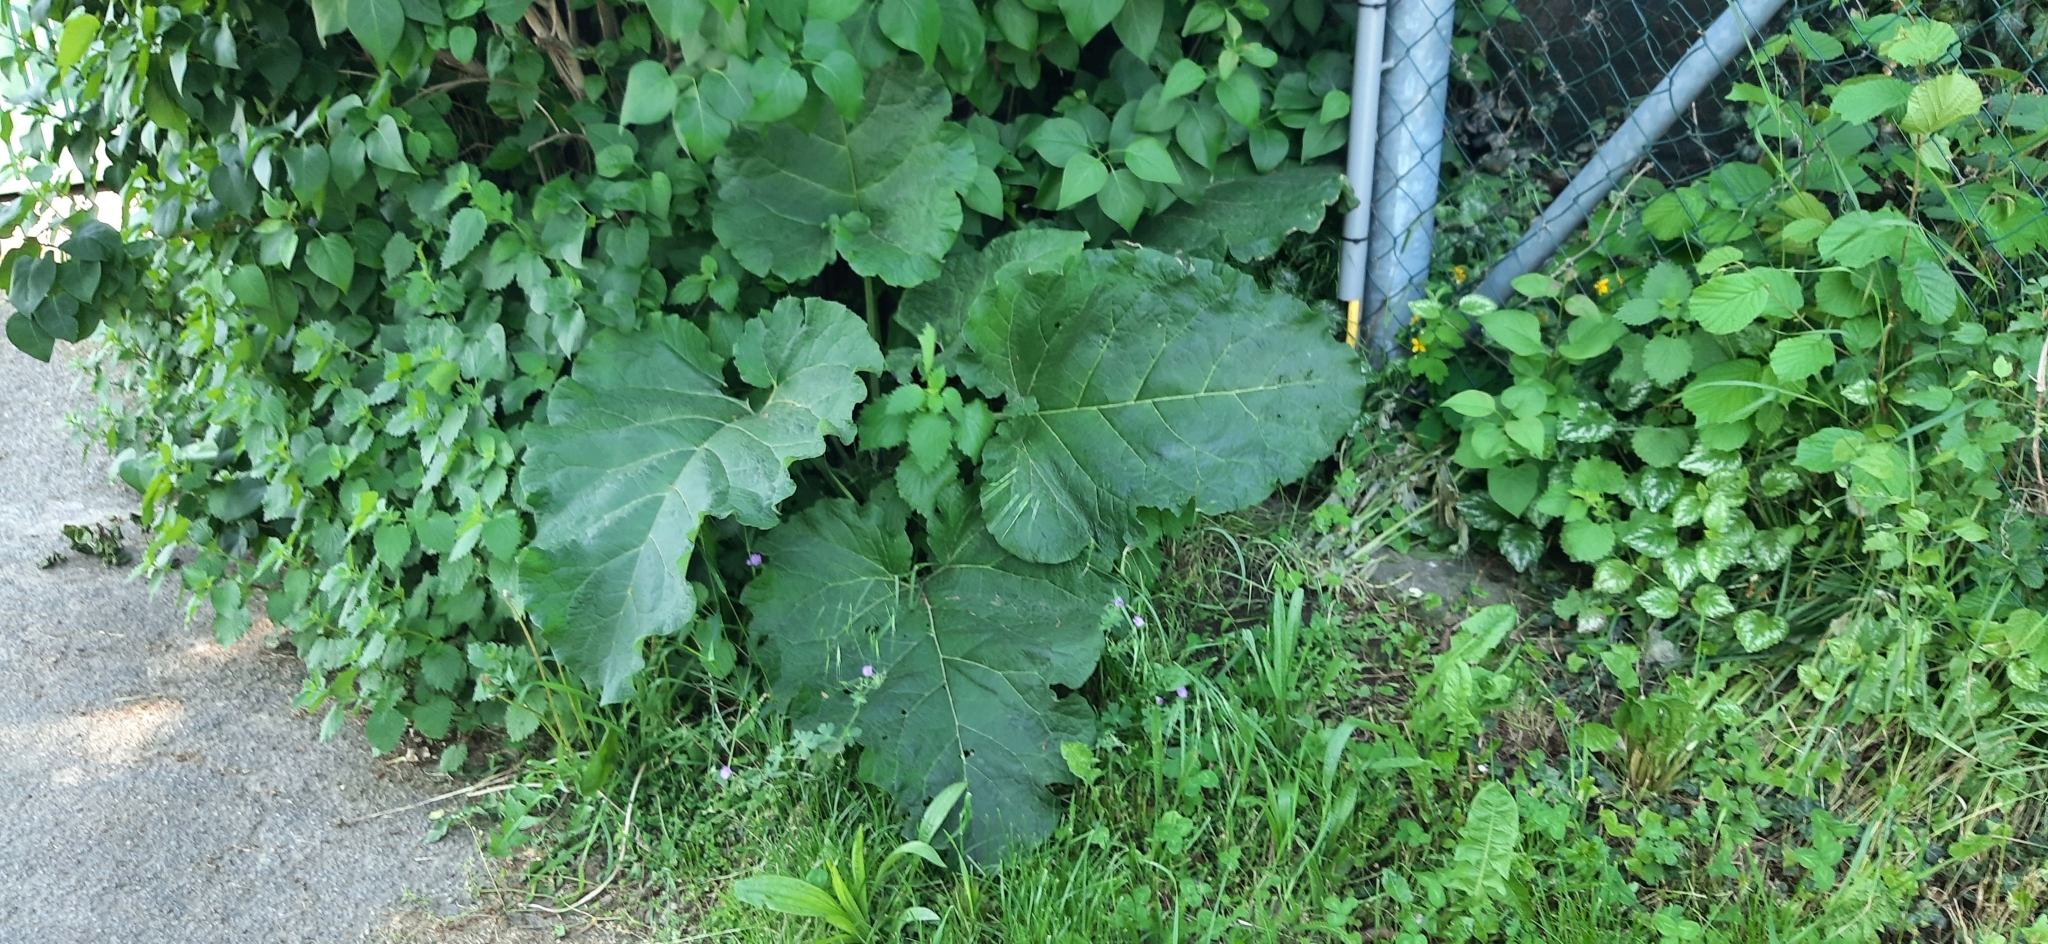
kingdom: Plantae
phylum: Tracheophyta
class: Magnoliopsida
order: Asterales
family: Asteraceae
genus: Arctium
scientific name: Arctium
